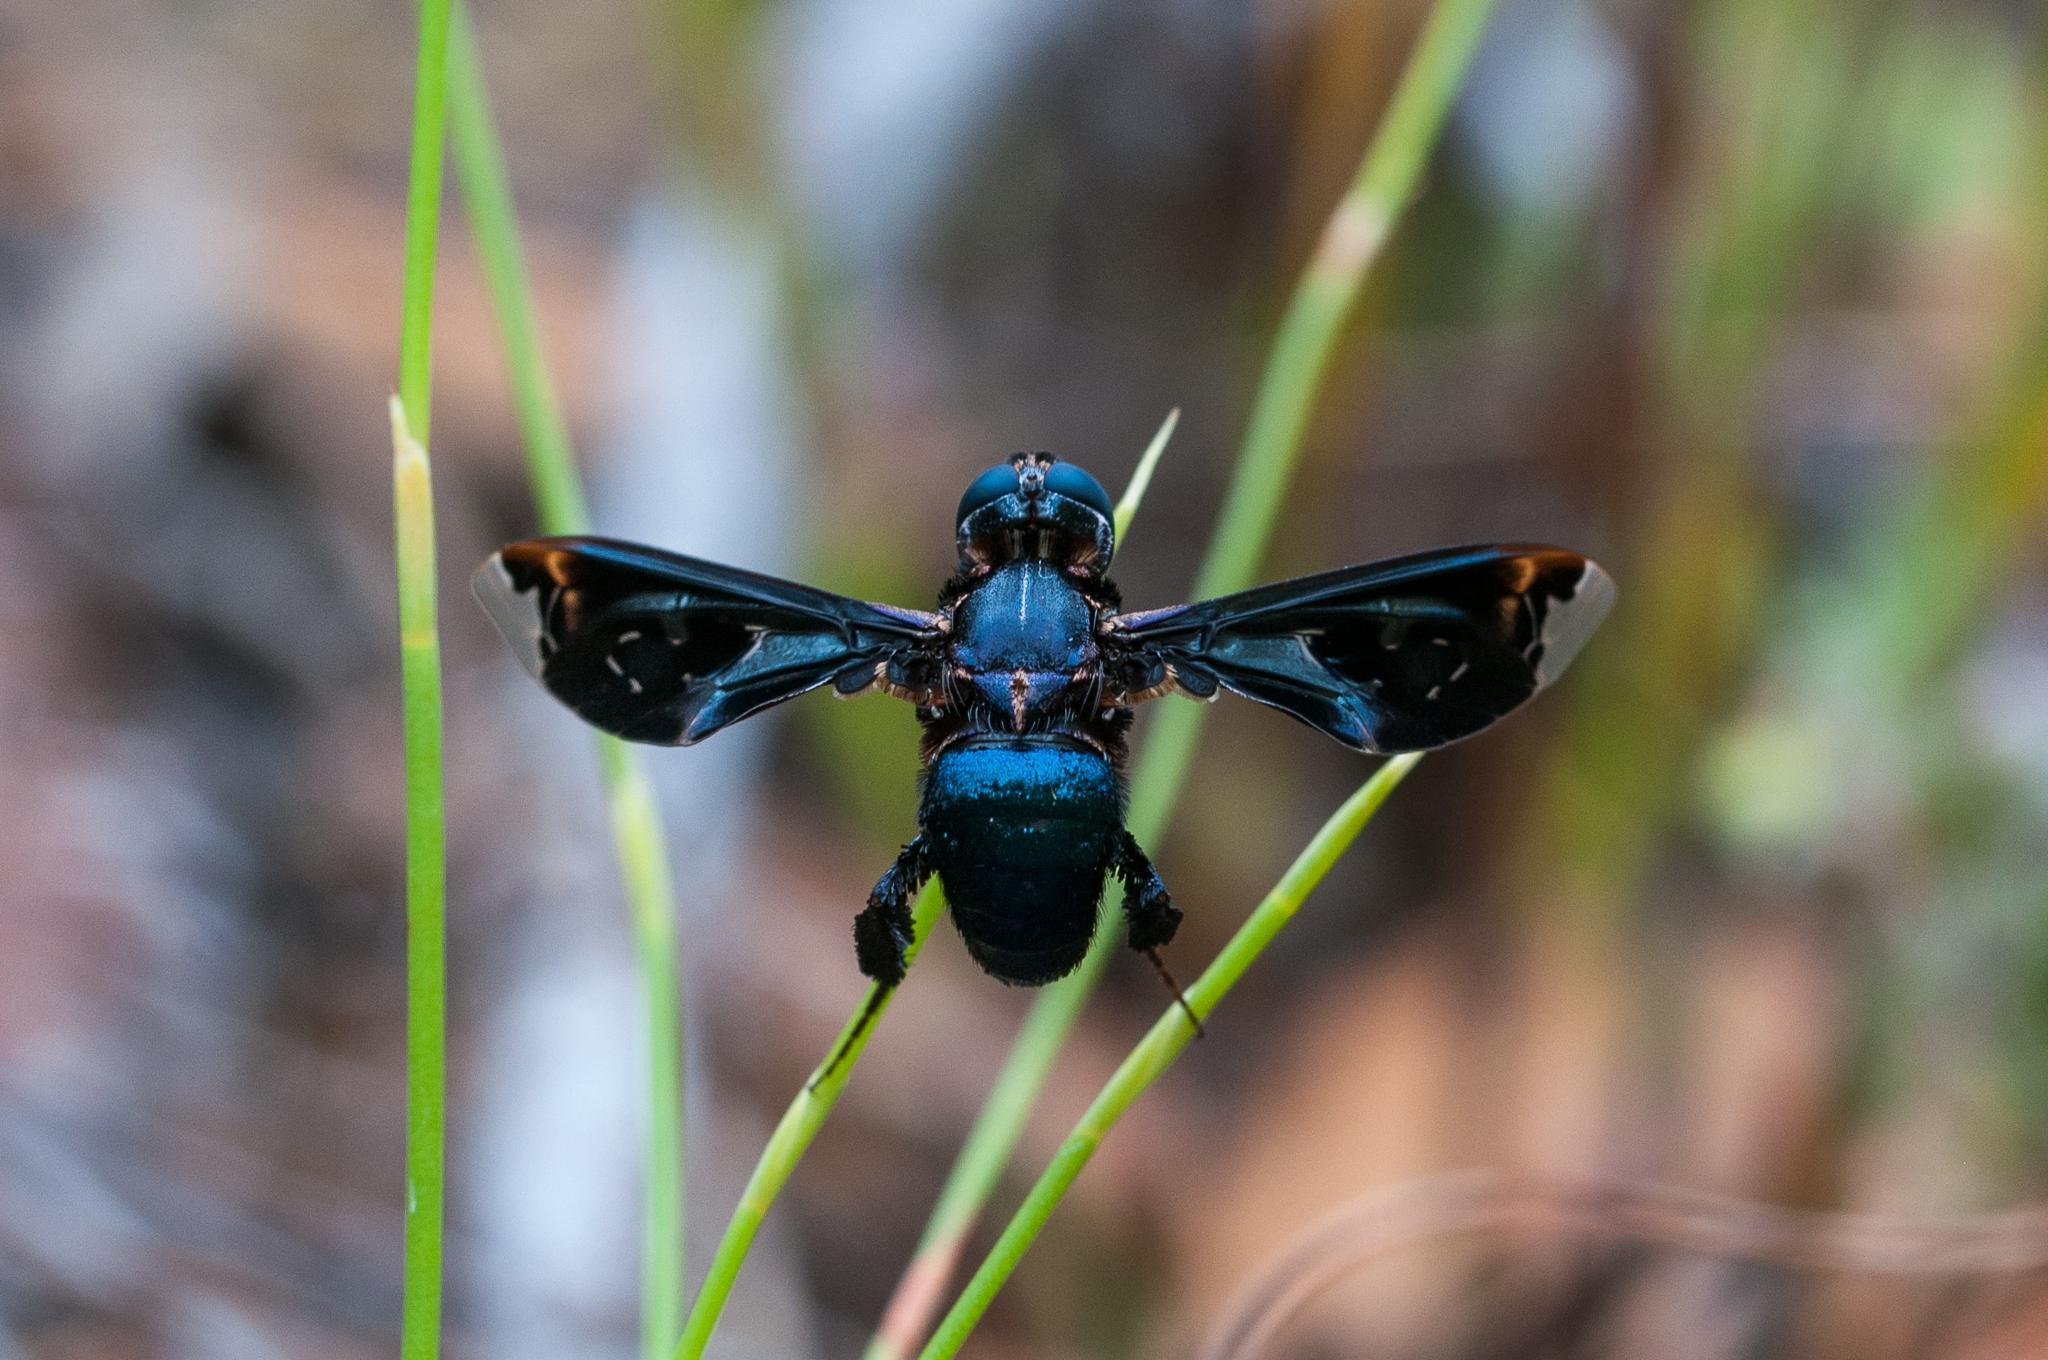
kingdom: Animalia
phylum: Arthropoda
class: Insecta
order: Diptera
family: Bombyliidae
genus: Pterobates
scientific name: Pterobates apicalis
